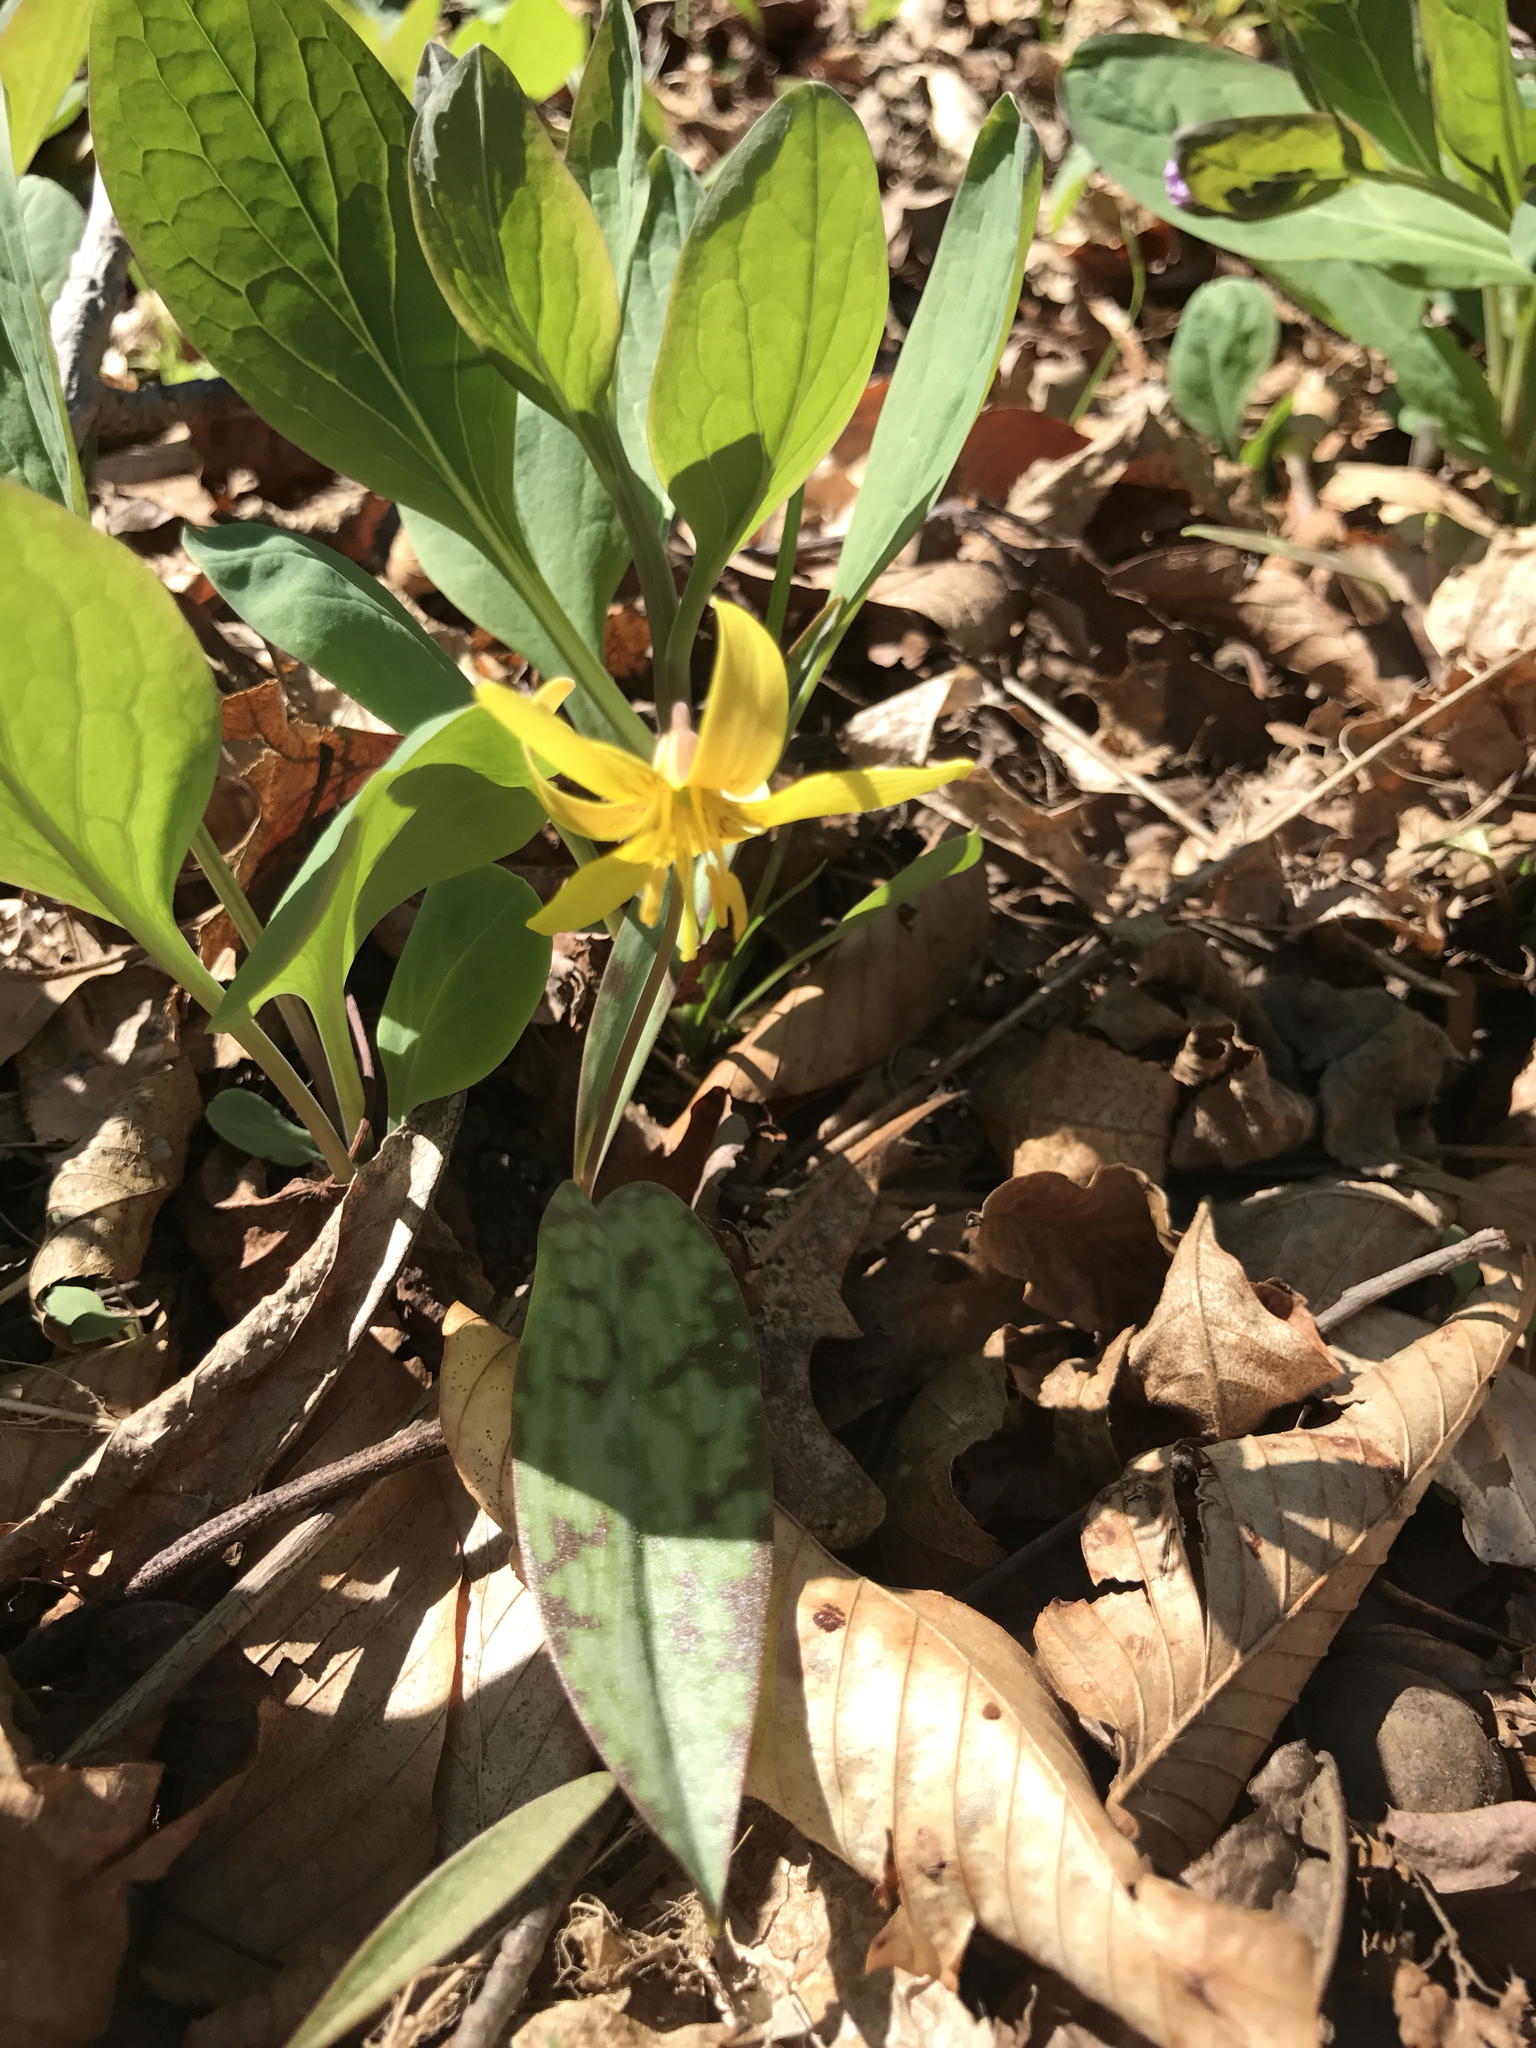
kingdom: Plantae
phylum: Tracheophyta
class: Liliopsida
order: Liliales
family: Liliaceae
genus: Erythronium
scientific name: Erythronium americanum
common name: Yellow adder's-tongue
